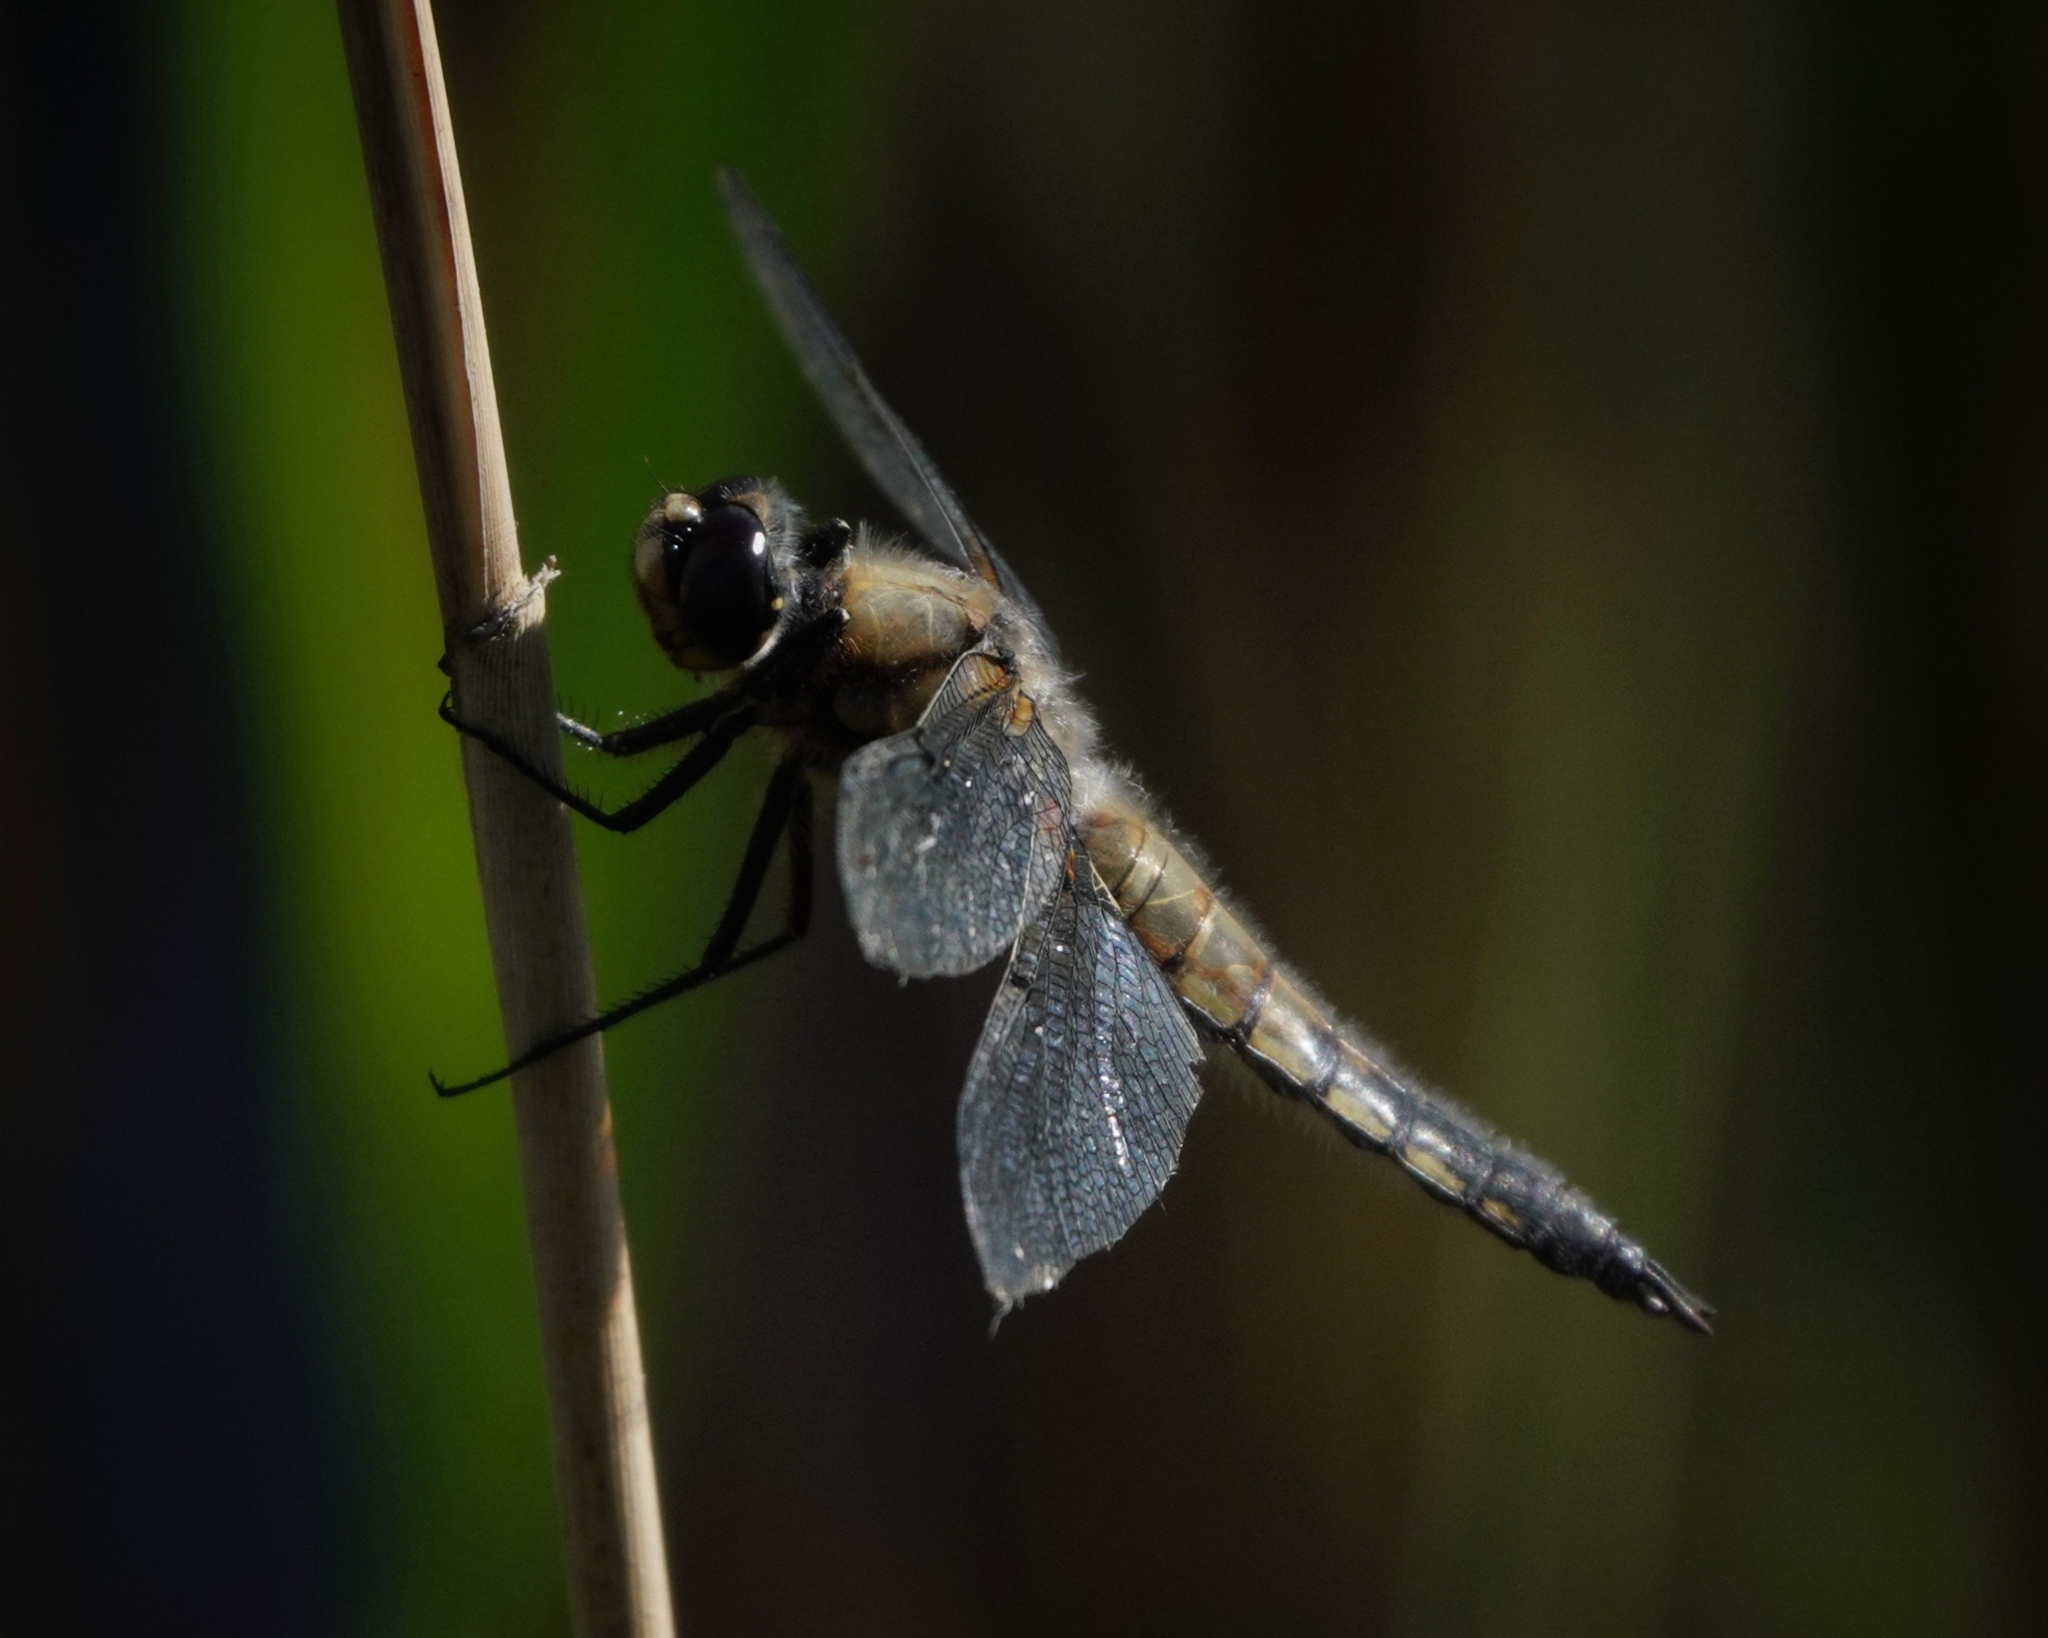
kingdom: Animalia
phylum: Arthropoda
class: Insecta
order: Odonata
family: Libellulidae
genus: Libellula
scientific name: Libellula quadrimaculata
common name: Four-spotted chaser
